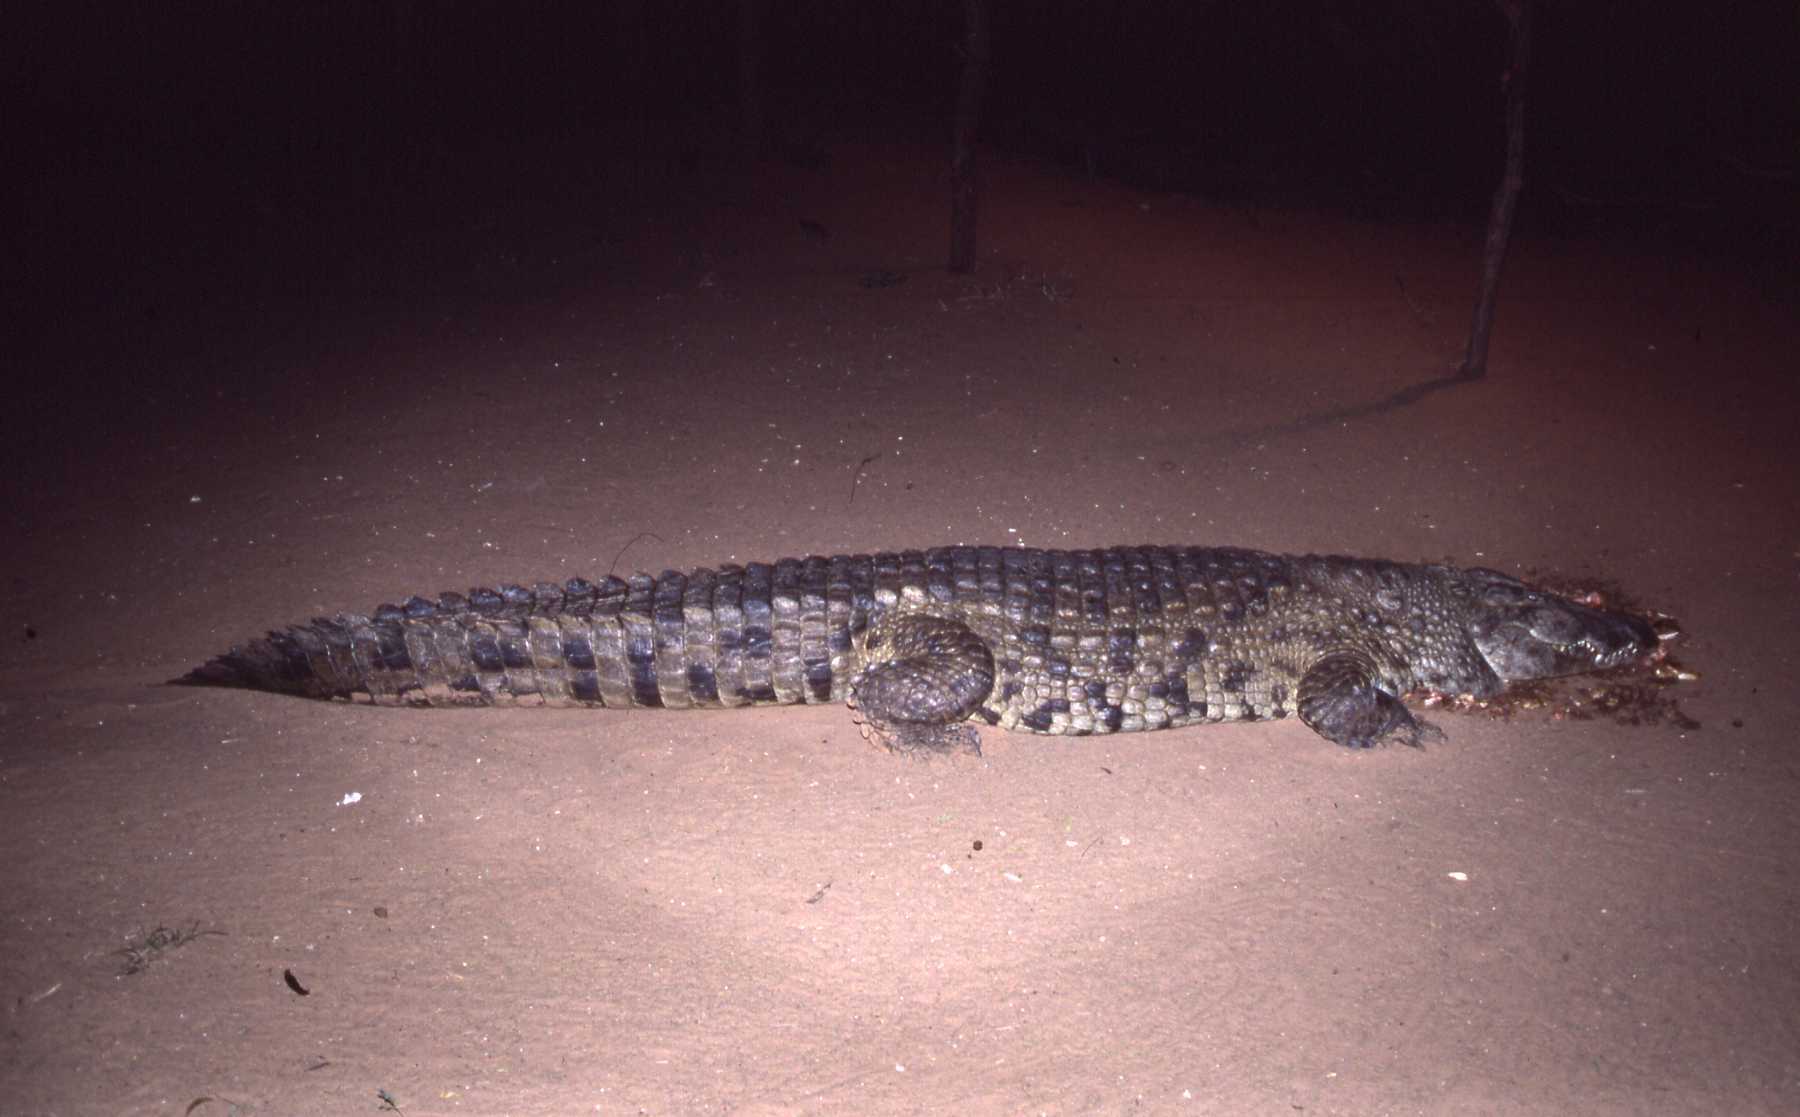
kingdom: Animalia
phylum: Chordata
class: Crocodylia
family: Crocodylidae
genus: Crocodylus
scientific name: Crocodylus niloticus
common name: Nile crocodile
